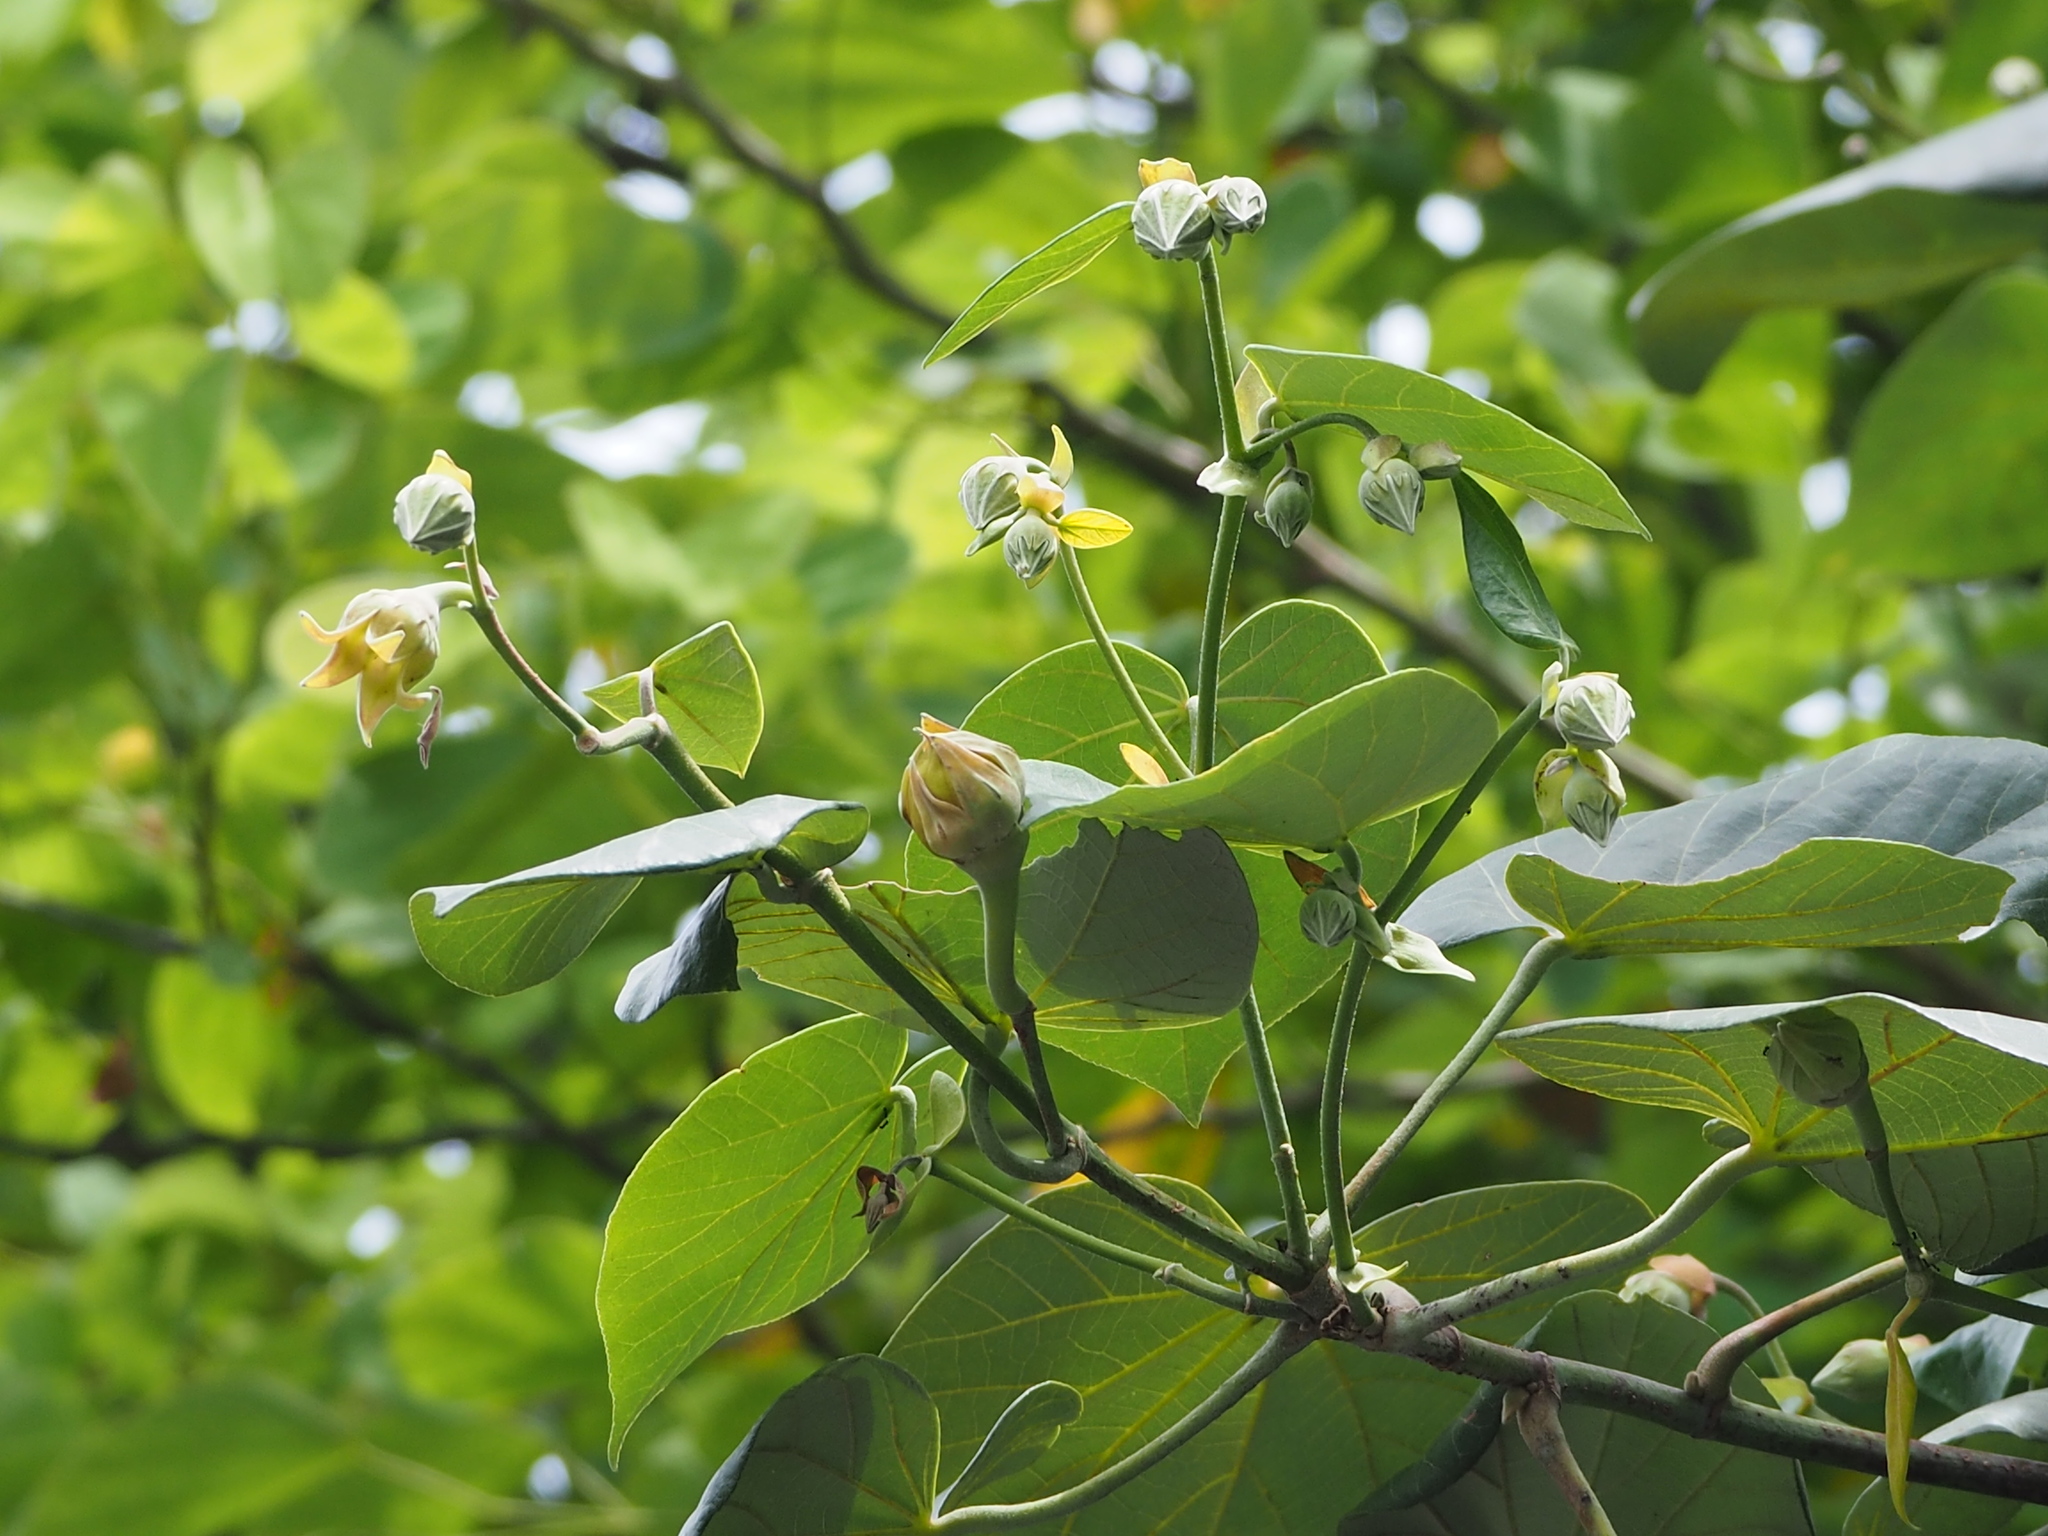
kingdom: Plantae
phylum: Tracheophyta
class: Magnoliopsida
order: Malvales
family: Malvaceae
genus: Talipariti
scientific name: Talipariti tiliaceum
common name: Sea hibiscus
